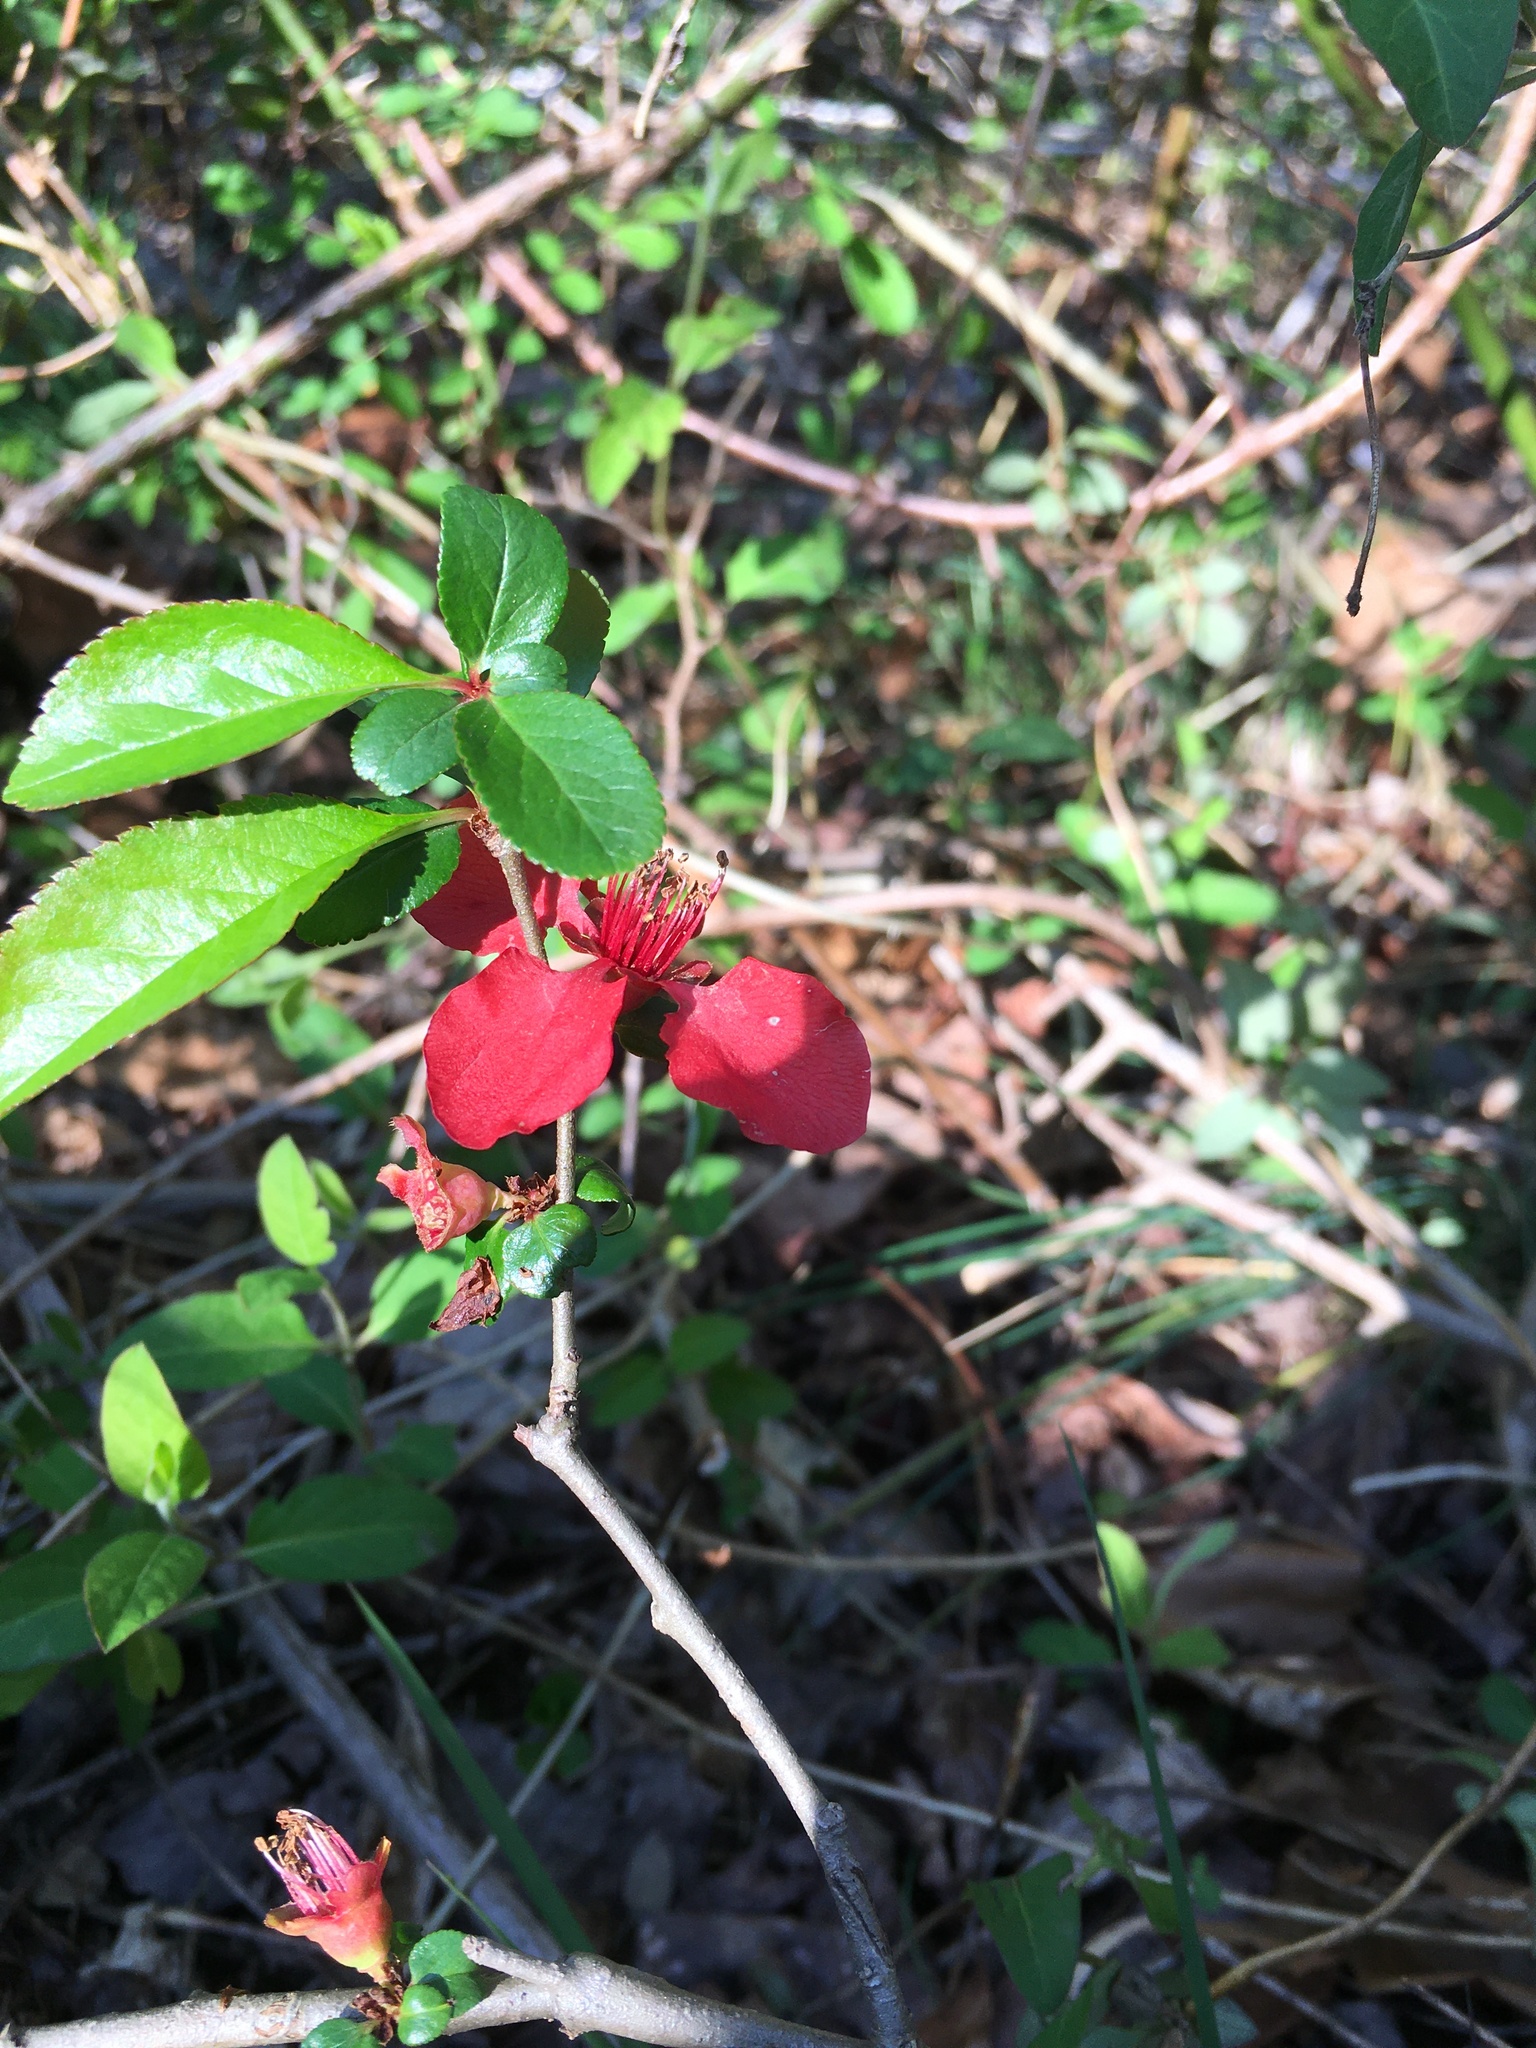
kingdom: Plantae
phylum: Tracheophyta
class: Magnoliopsida
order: Rosales
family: Rosaceae
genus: Chaenomeles
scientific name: Chaenomeles speciosa
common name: Japanese quince
